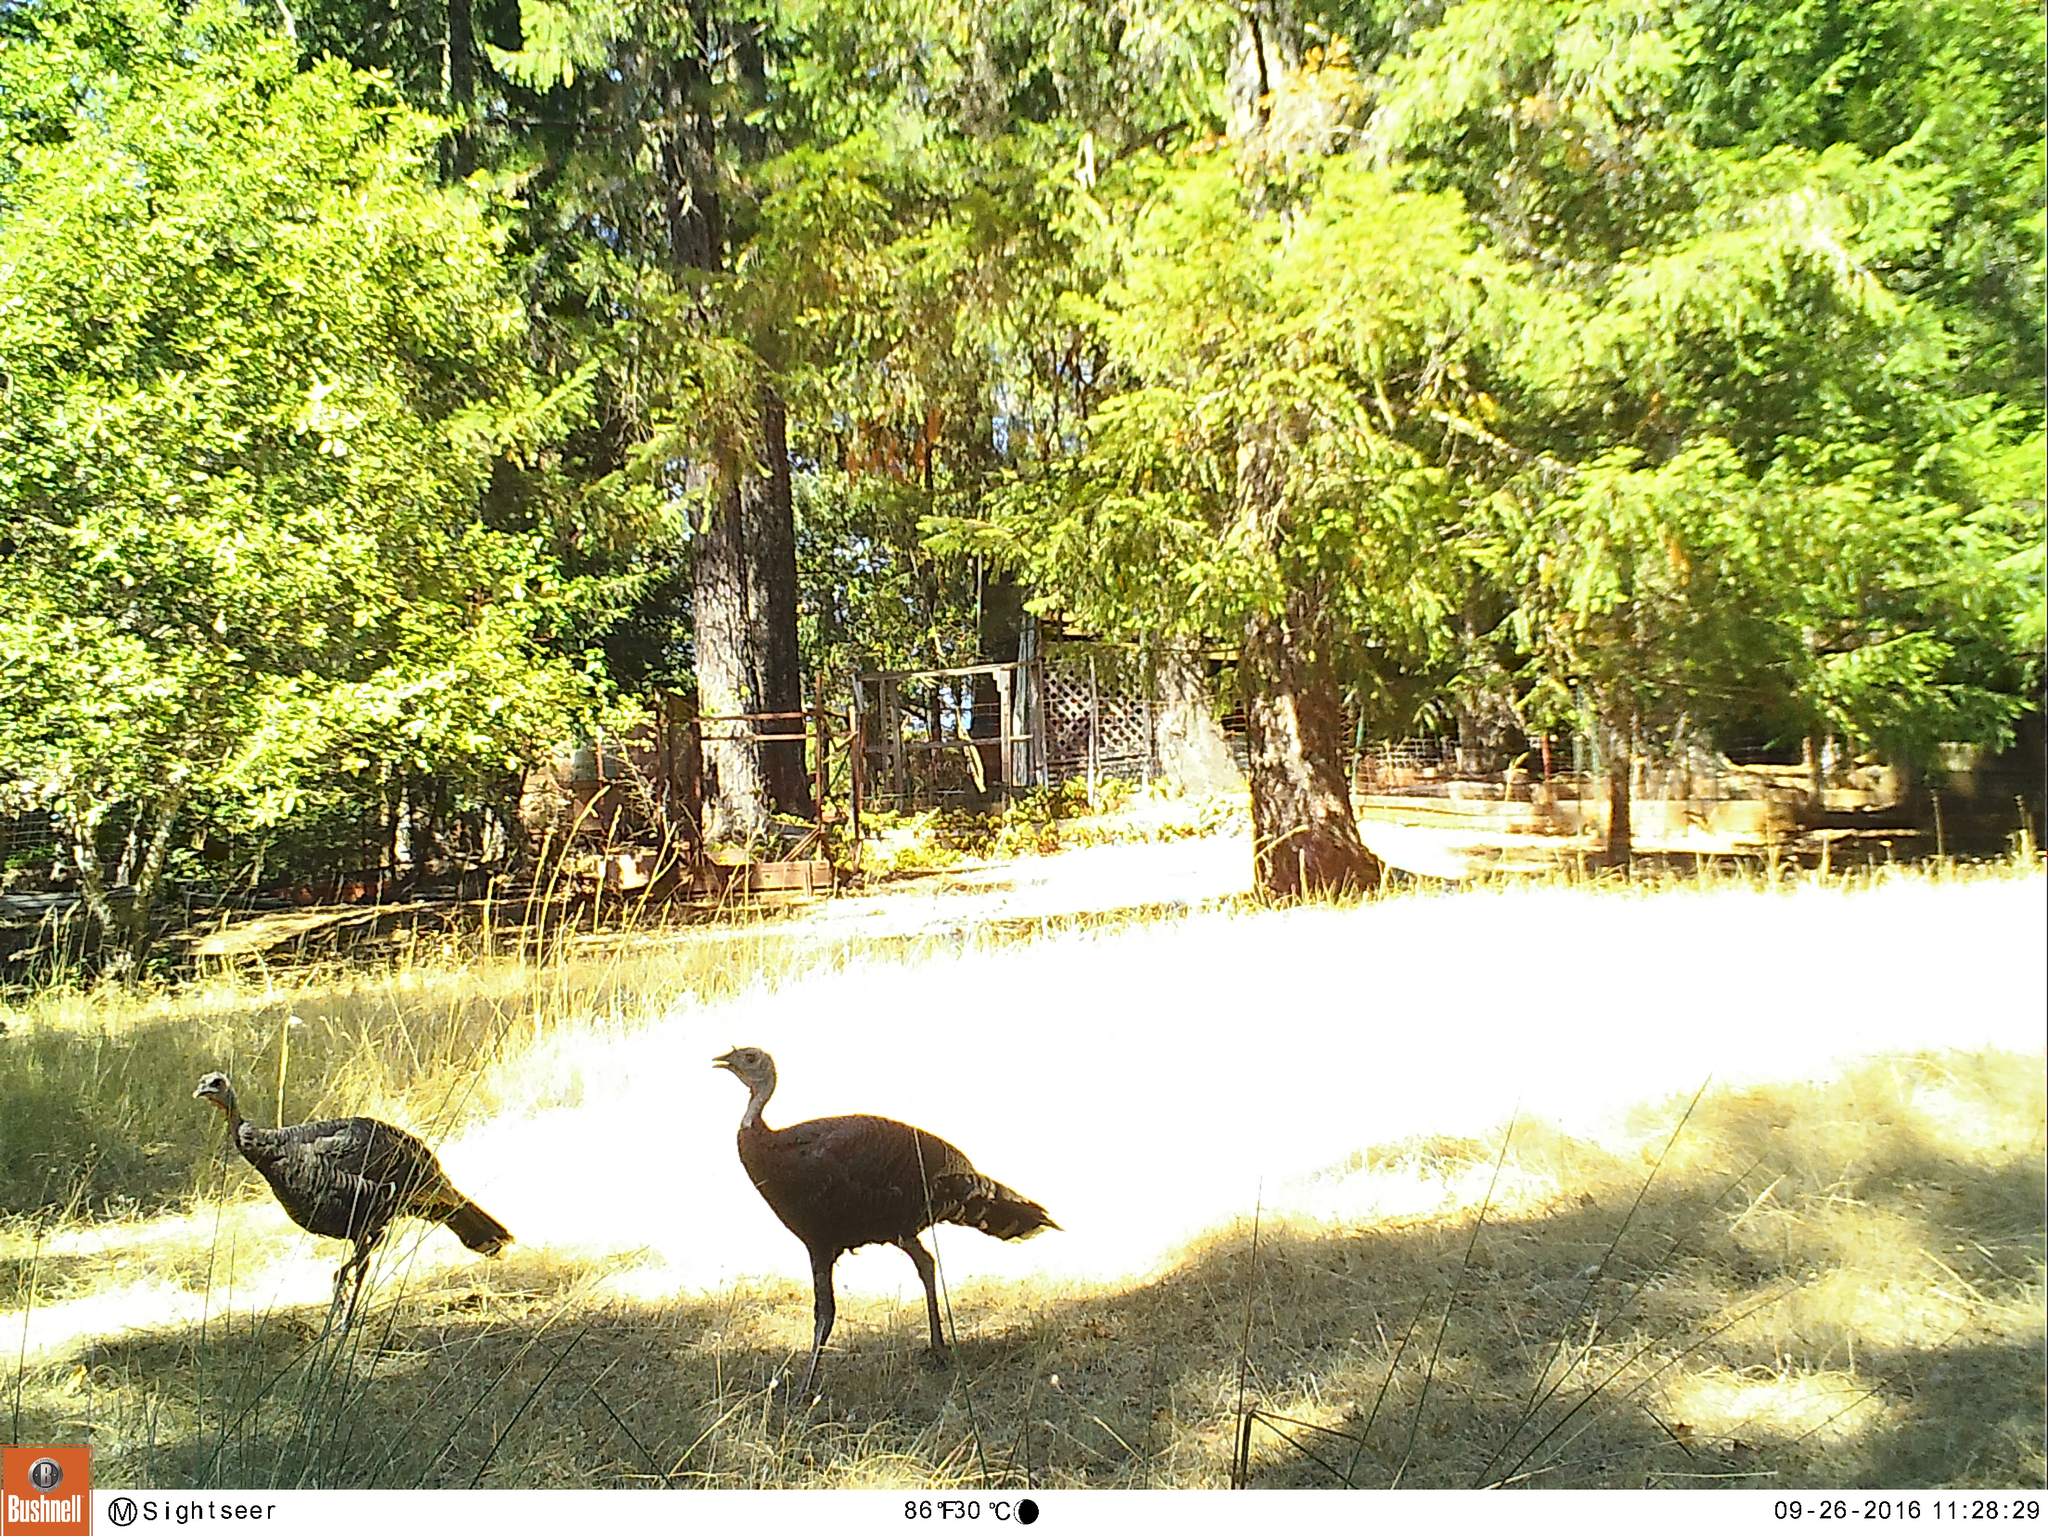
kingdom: Animalia
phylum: Chordata
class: Aves
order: Galliformes
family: Phasianidae
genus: Meleagris
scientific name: Meleagris gallopavo
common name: Wild turkey
